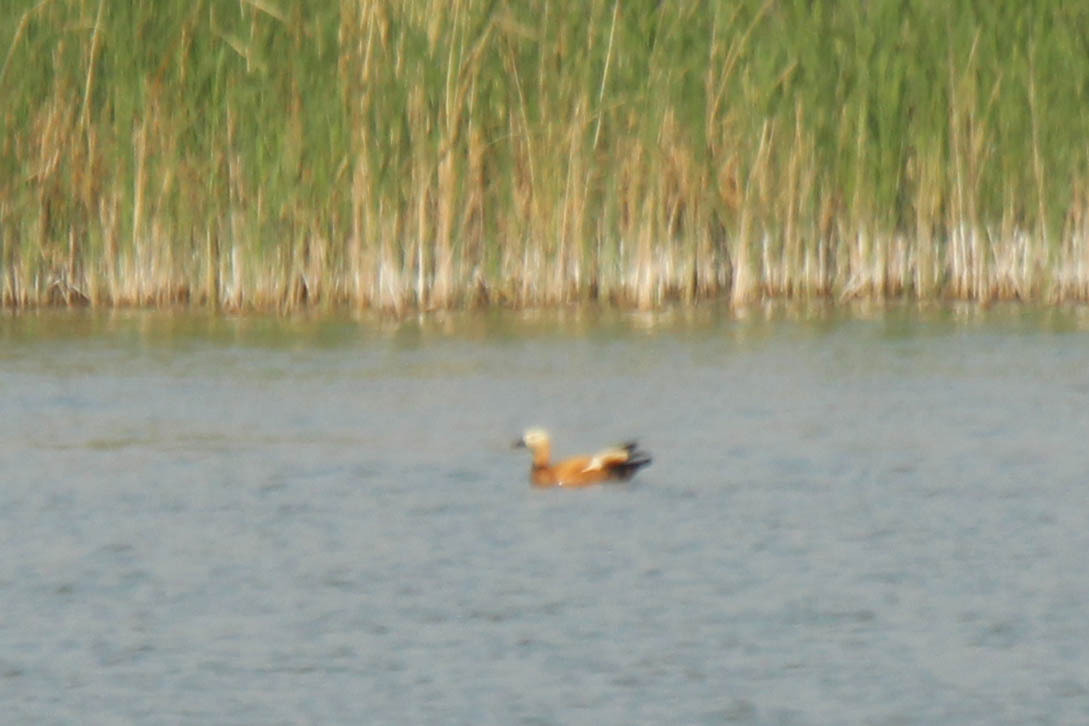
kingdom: Animalia
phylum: Chordata
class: Aves
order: Anseriformes
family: Anatidae
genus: Tadorna
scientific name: Tadorna ferruginea
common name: Ruddy shelduck
